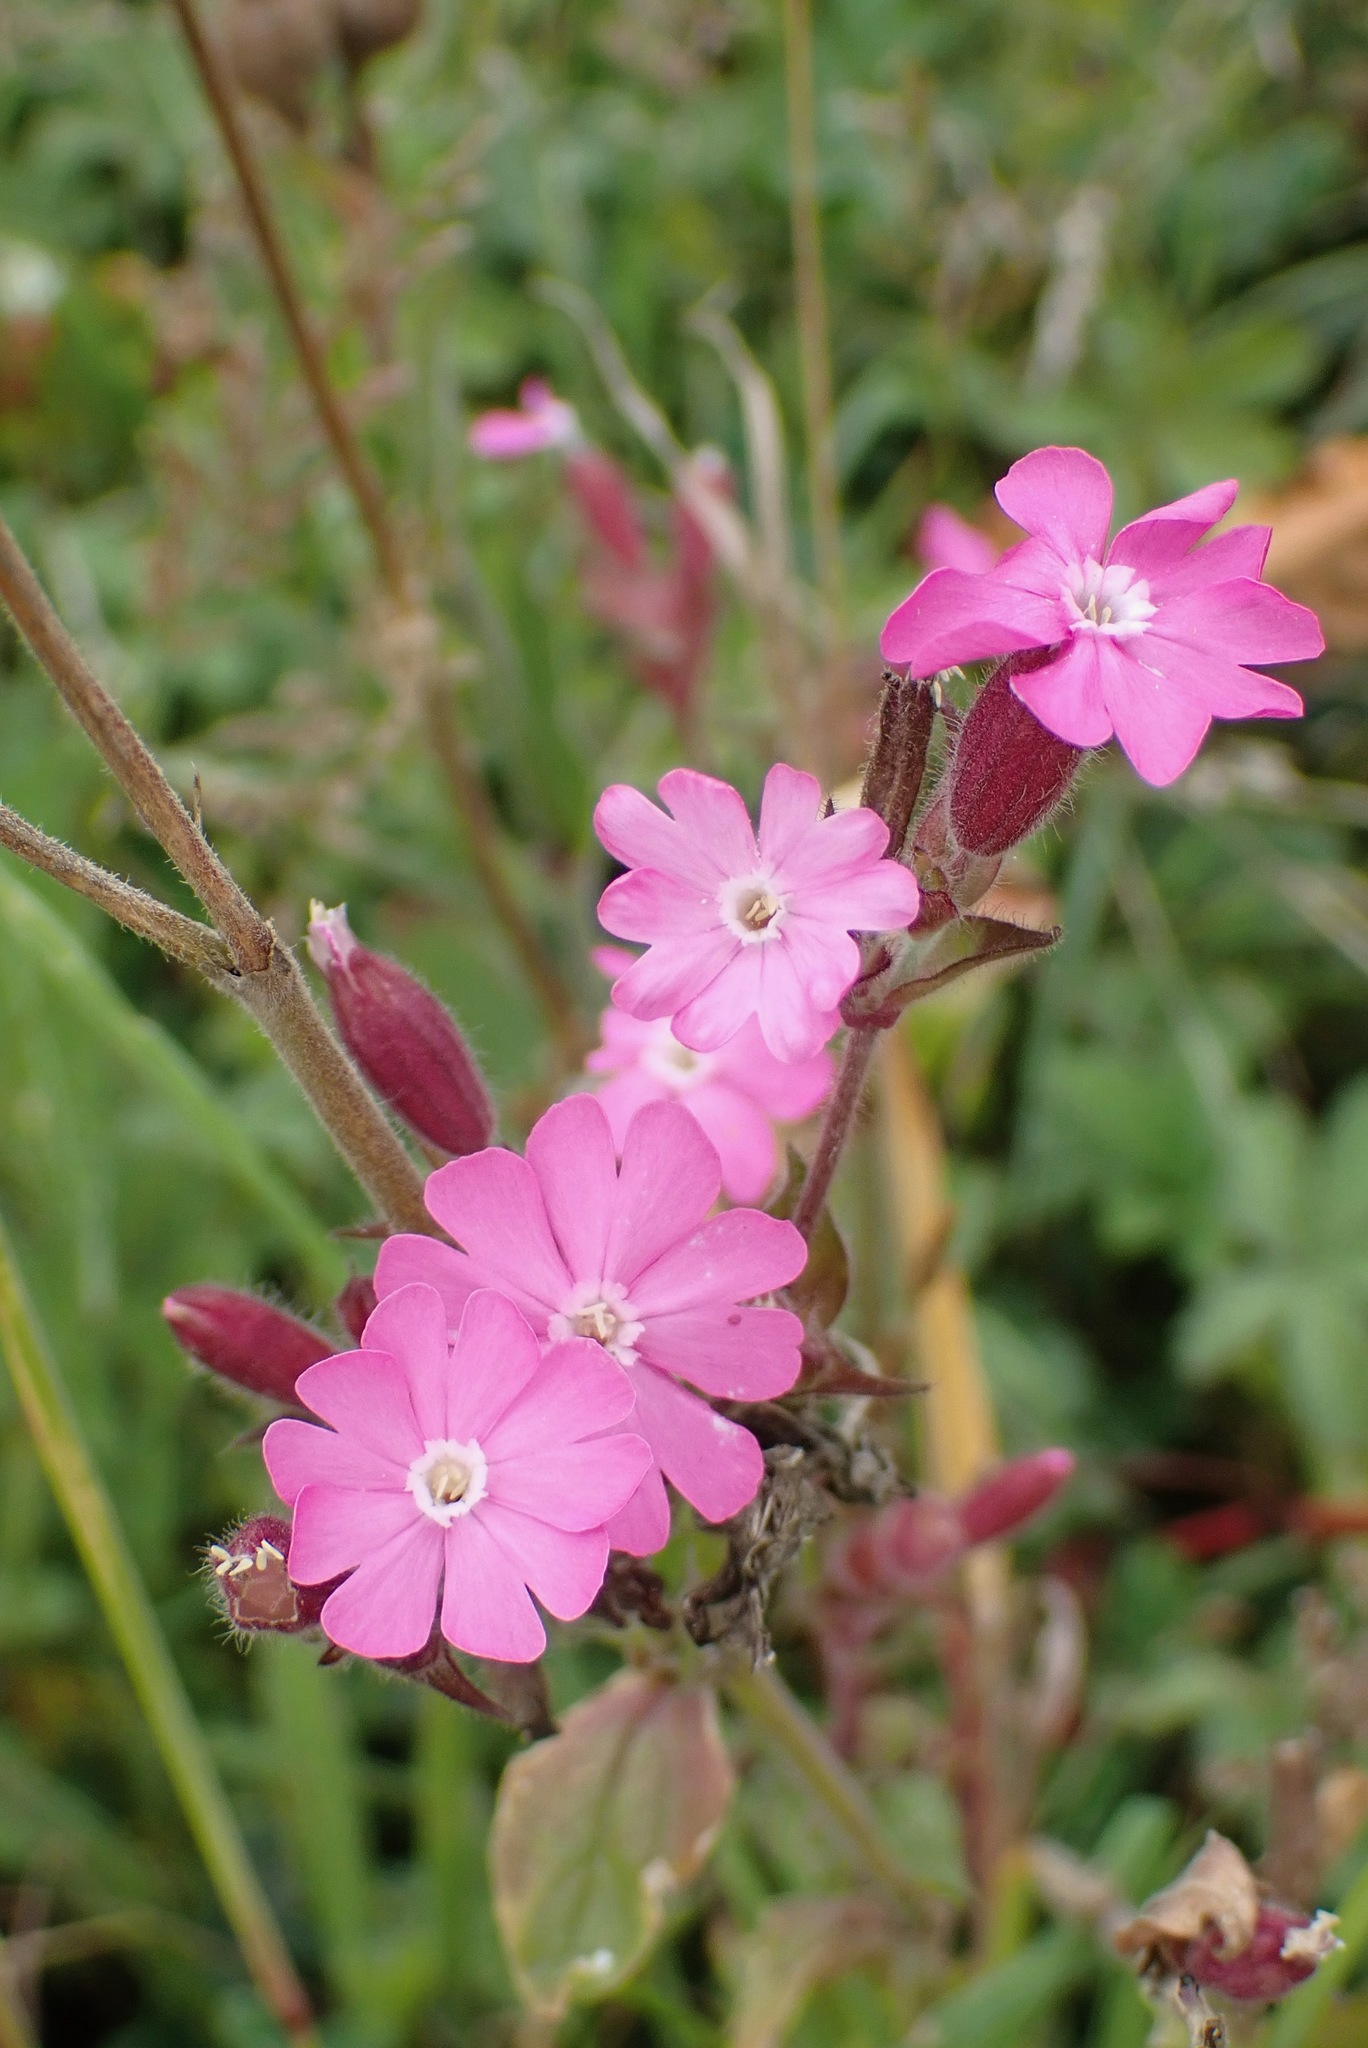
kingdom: Plantae
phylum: Tracheophyta
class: Magnoliopsida
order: Caryophyllales
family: Caryophyllaceae
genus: Silene
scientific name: Silene dioica
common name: Red campion
